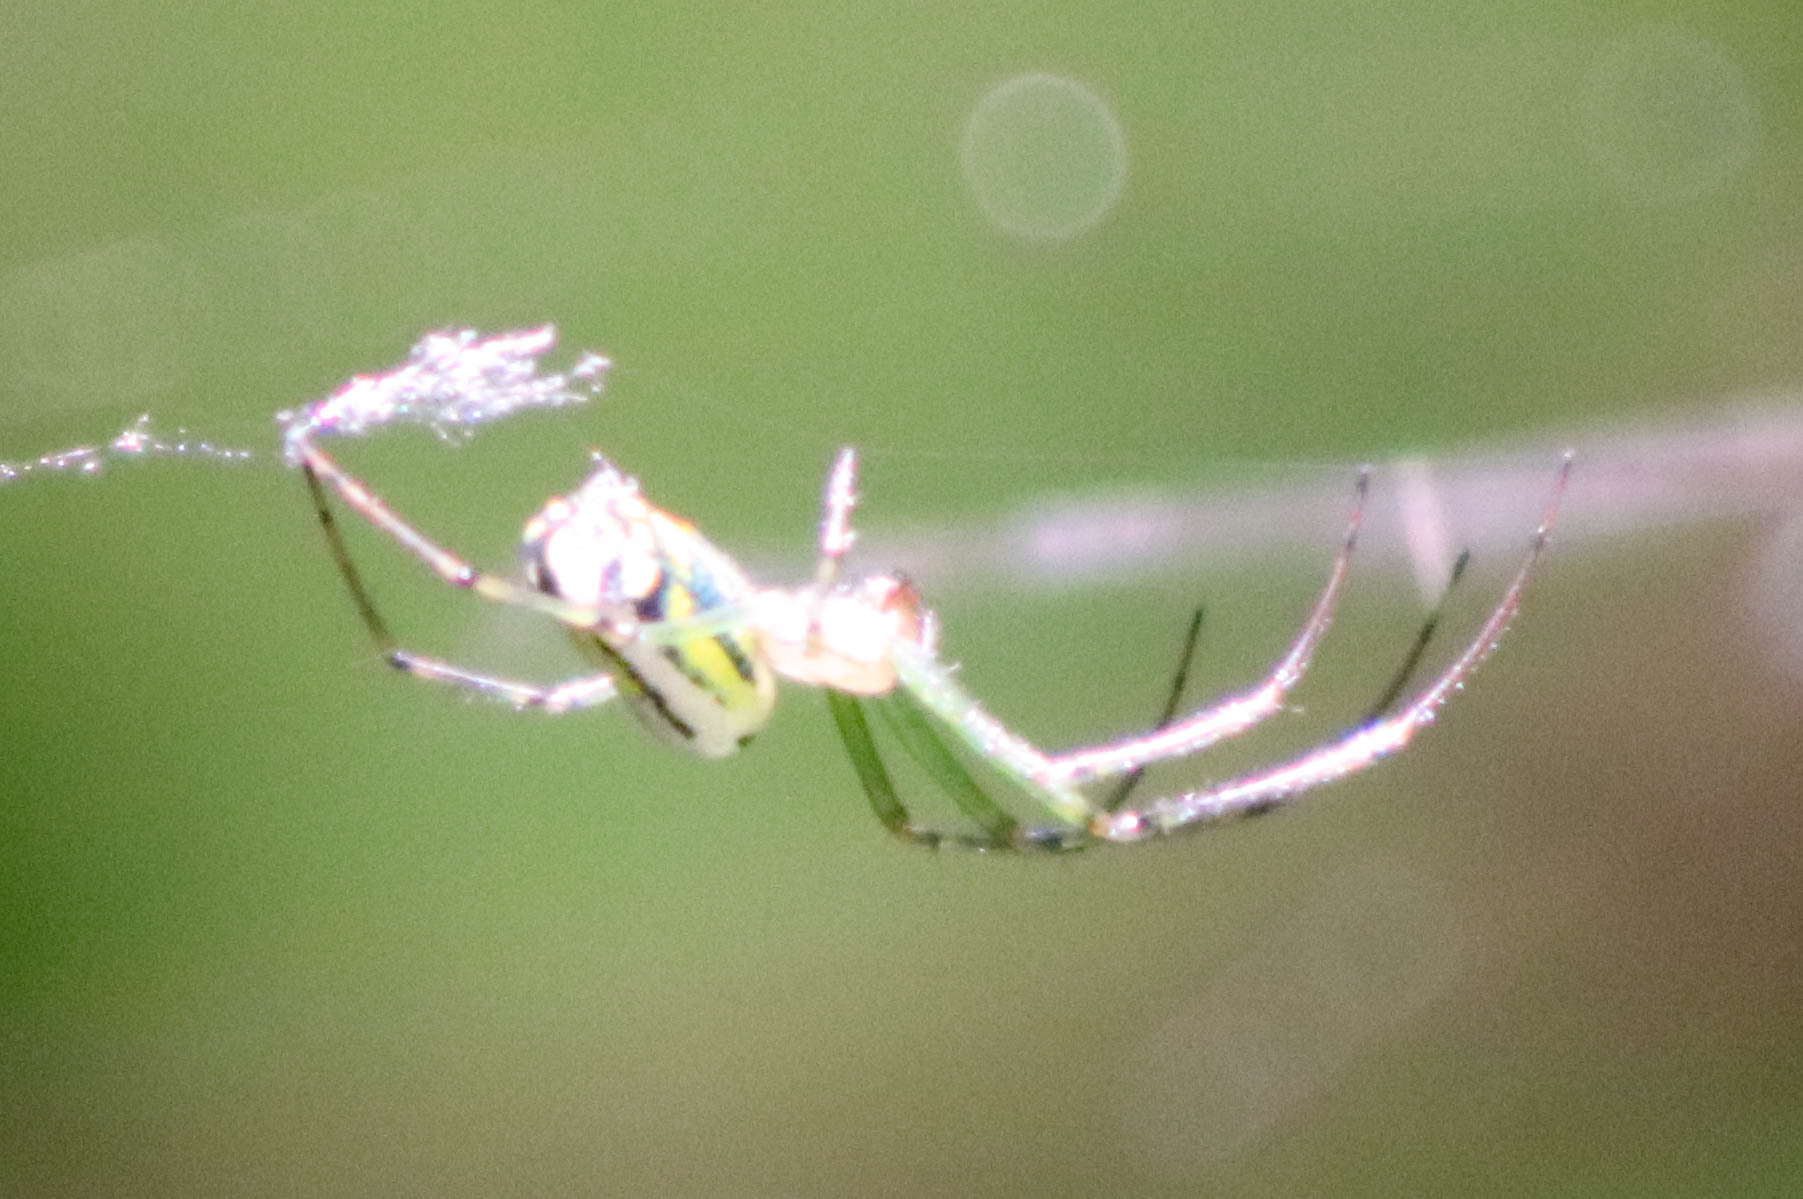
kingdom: Animalia
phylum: Arthropoda
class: Arachnida
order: Araneae
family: Tetragnathidae
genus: Leucauge
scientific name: Leucauge venusta
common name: Longjawed orb weavers
